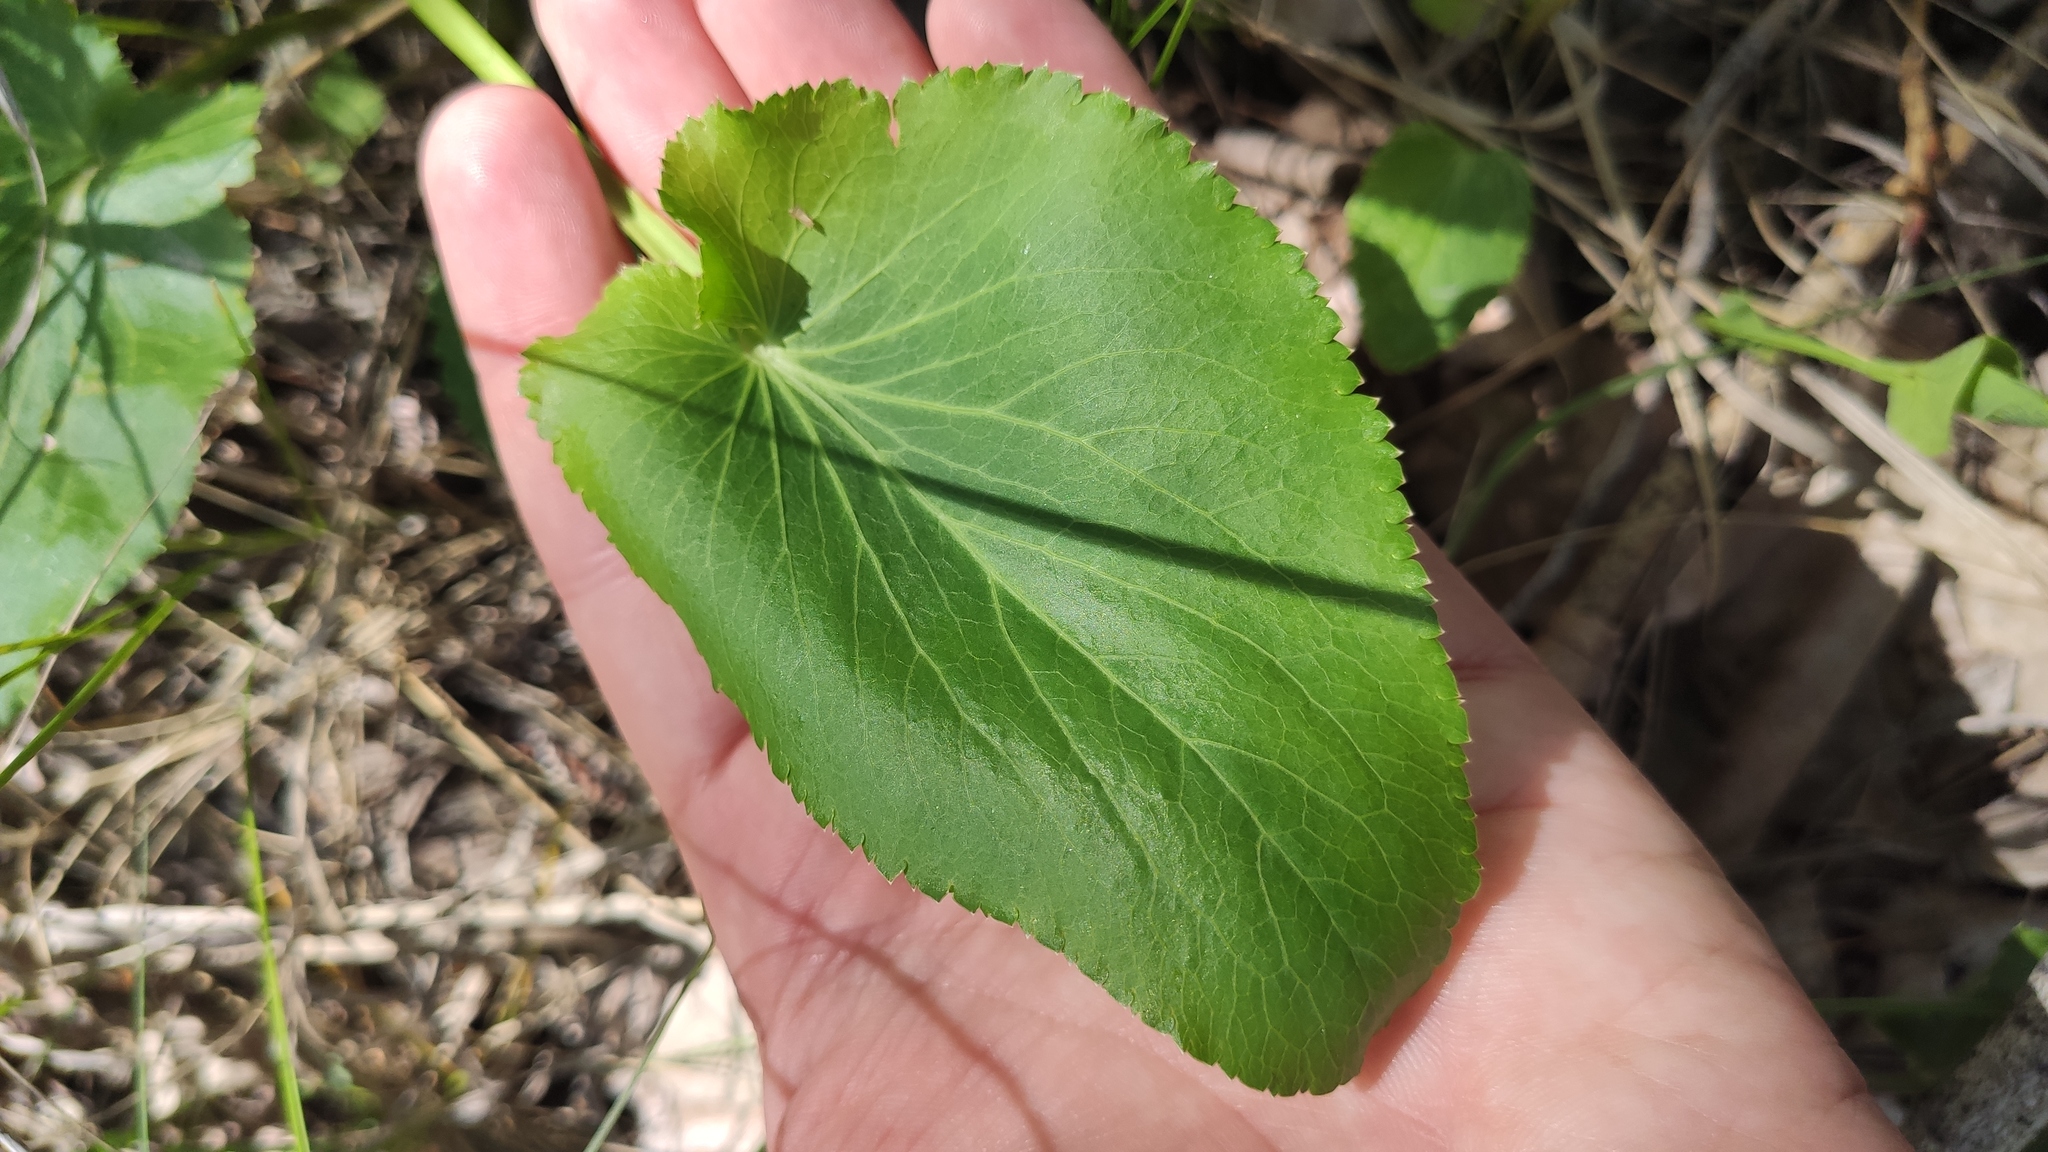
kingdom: Plantae
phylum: Tracheophyta
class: Magnoliopsida
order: Apiales
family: Apiaceae
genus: Eryngium
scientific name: Eryngium planum
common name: Blue eryngo
